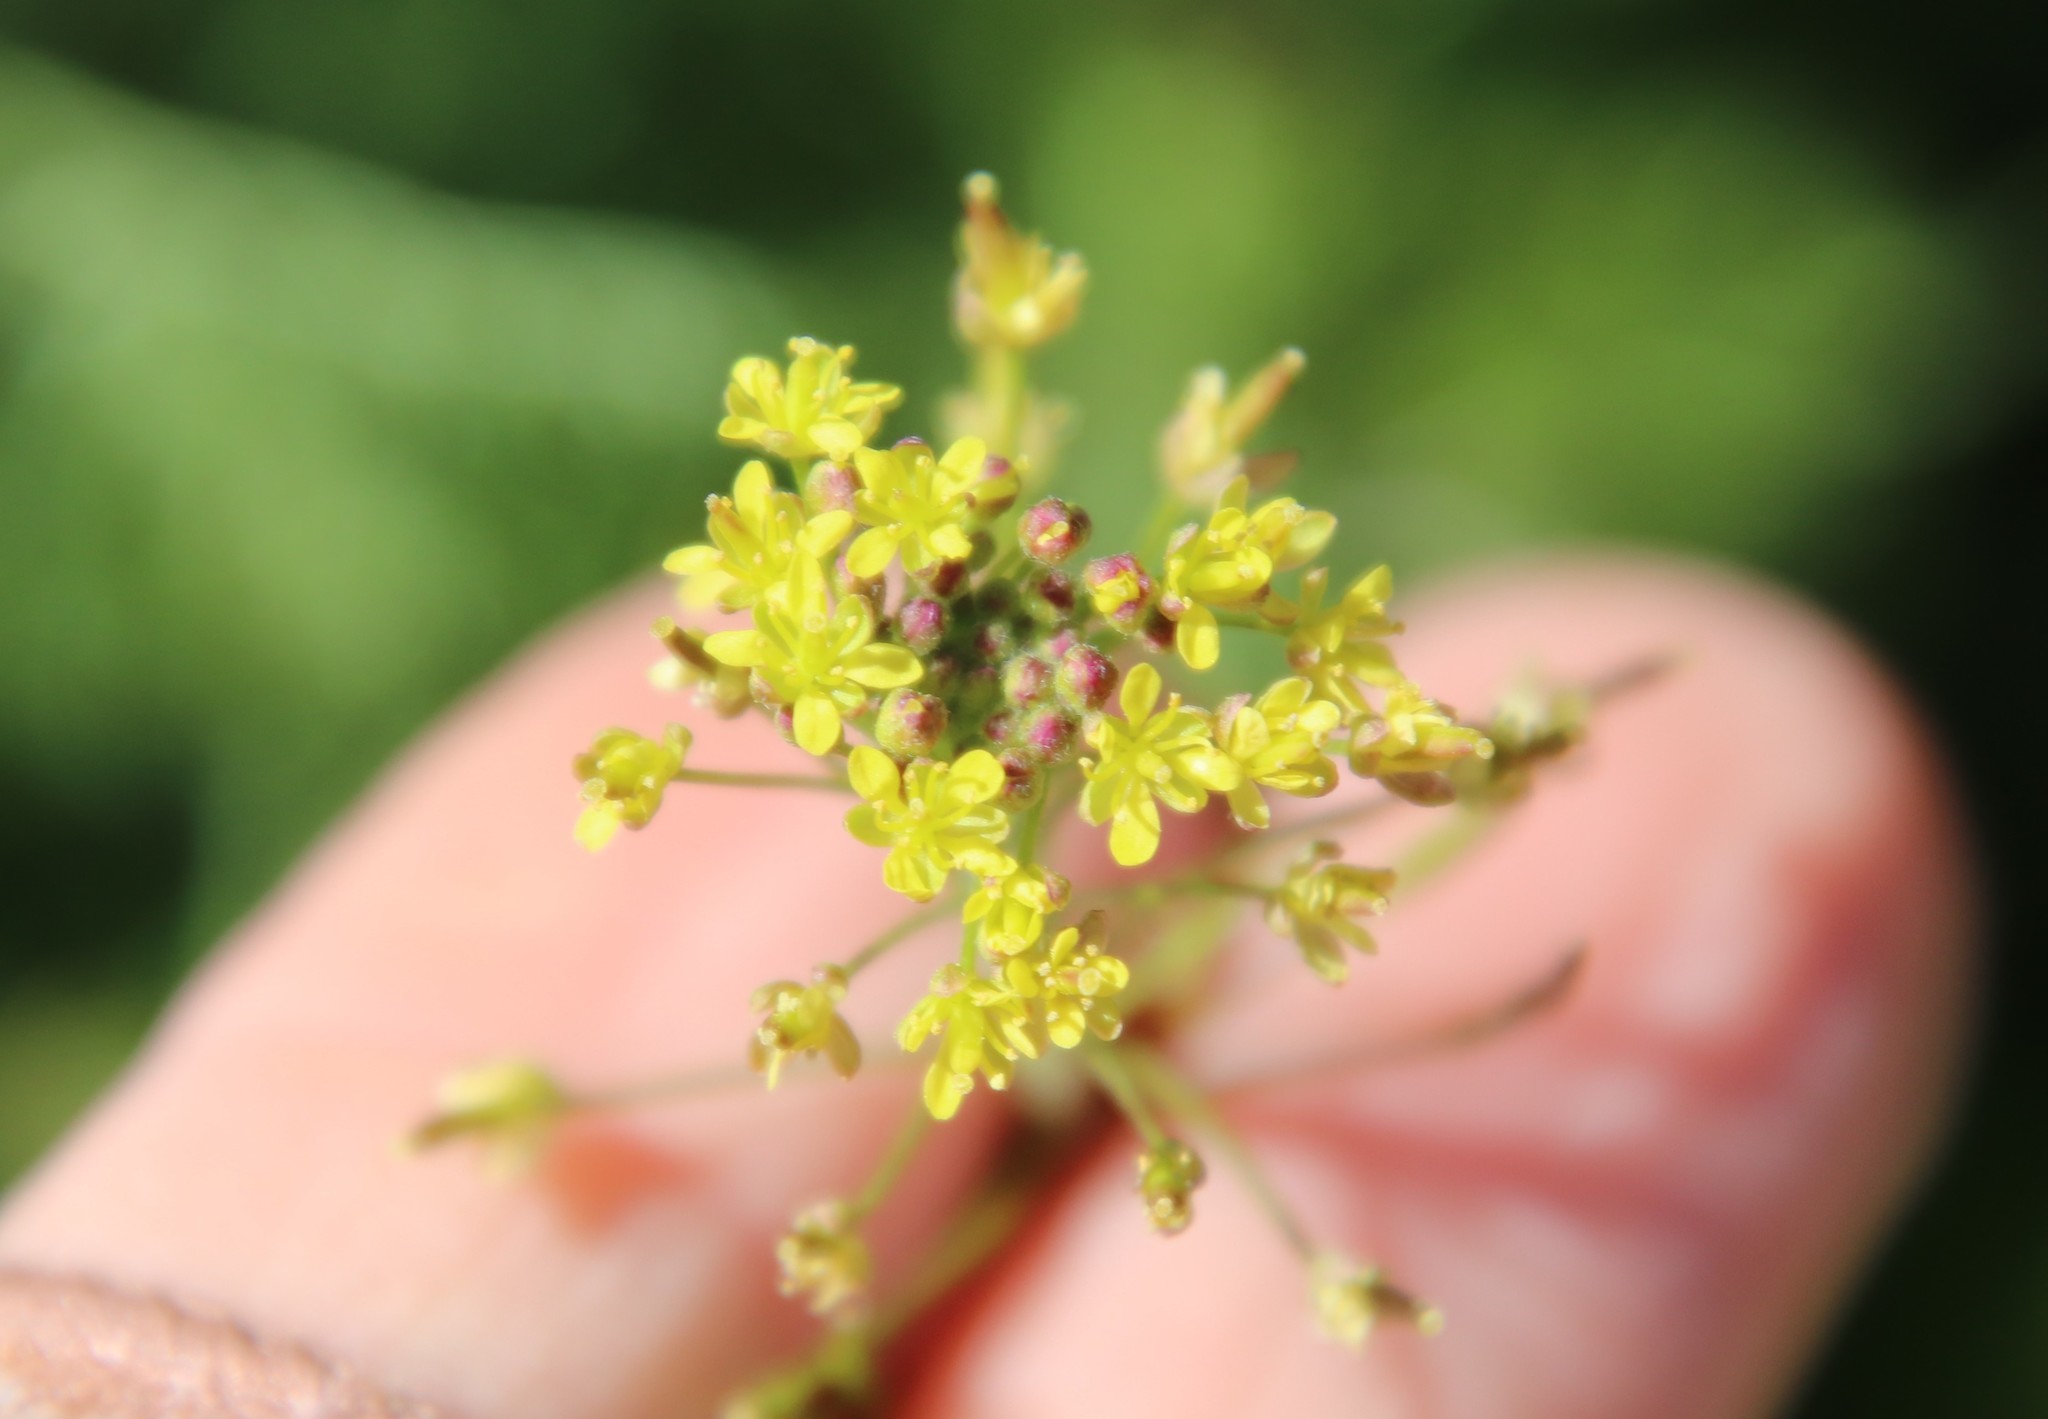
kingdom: Plantae
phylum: Tracheophyta
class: Magnoliopsida
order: Brassicales
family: Brassicaceae
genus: Descurainia
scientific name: Descurainia pinnata
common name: Western tansy mustard
